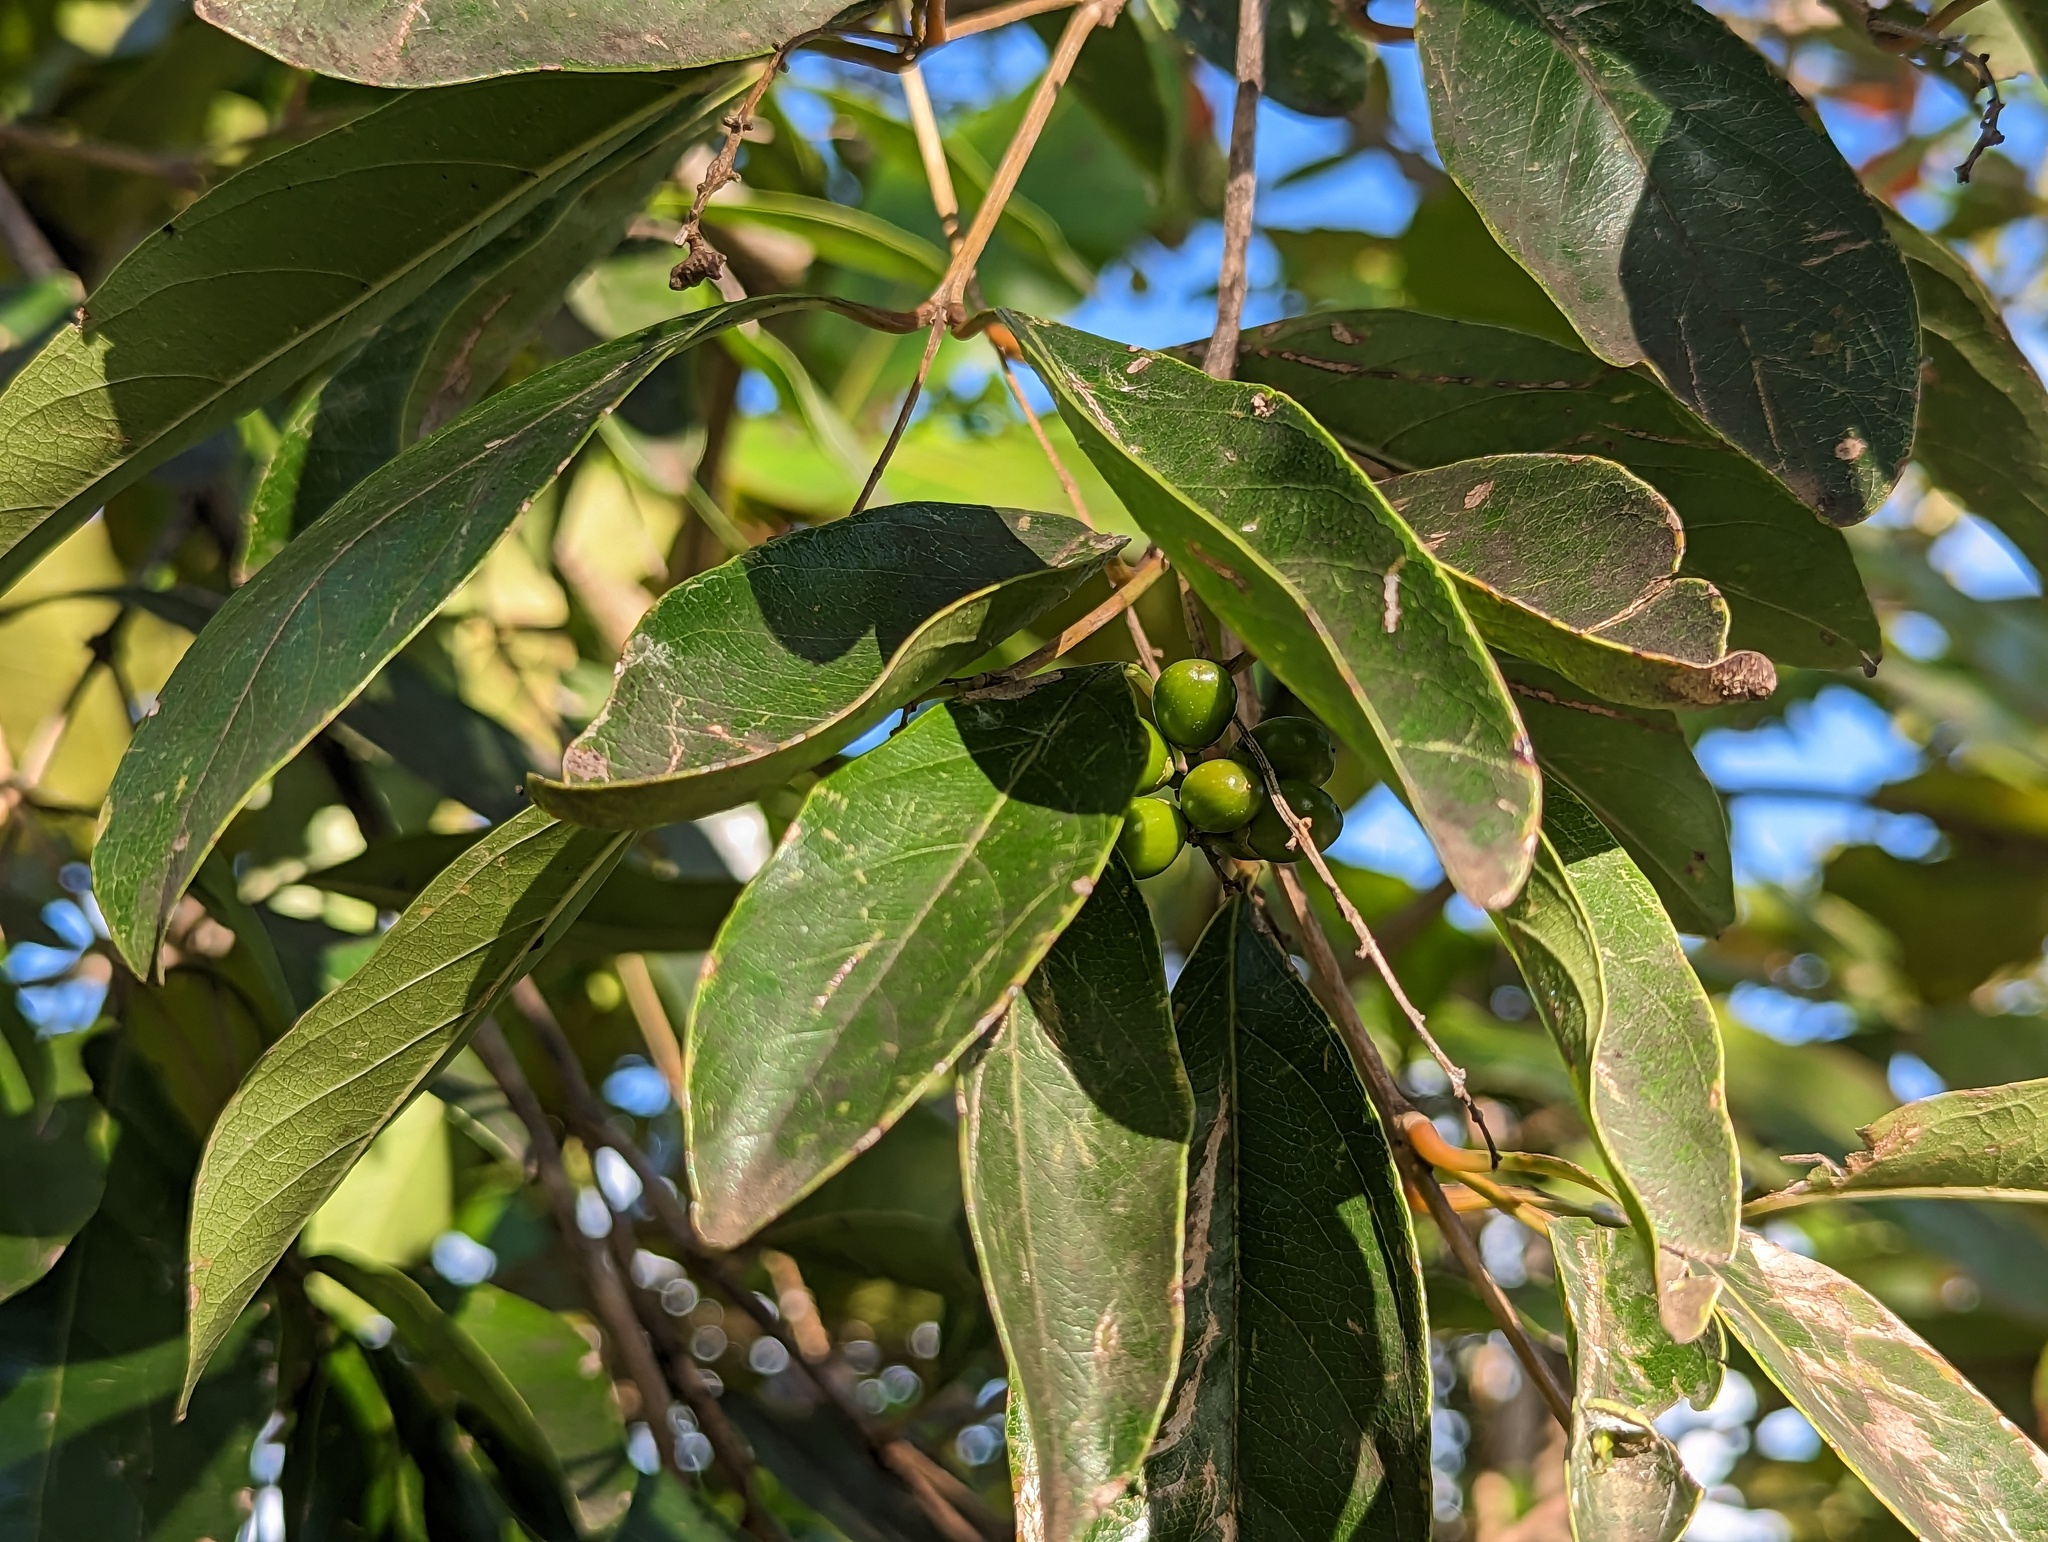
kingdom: Plantae
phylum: Tracheophyta
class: Magnoliopsida
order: Lamiales
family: Verbenaceae
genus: Citharexylum
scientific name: Citharexylum spinosum
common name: Fiddlewood
